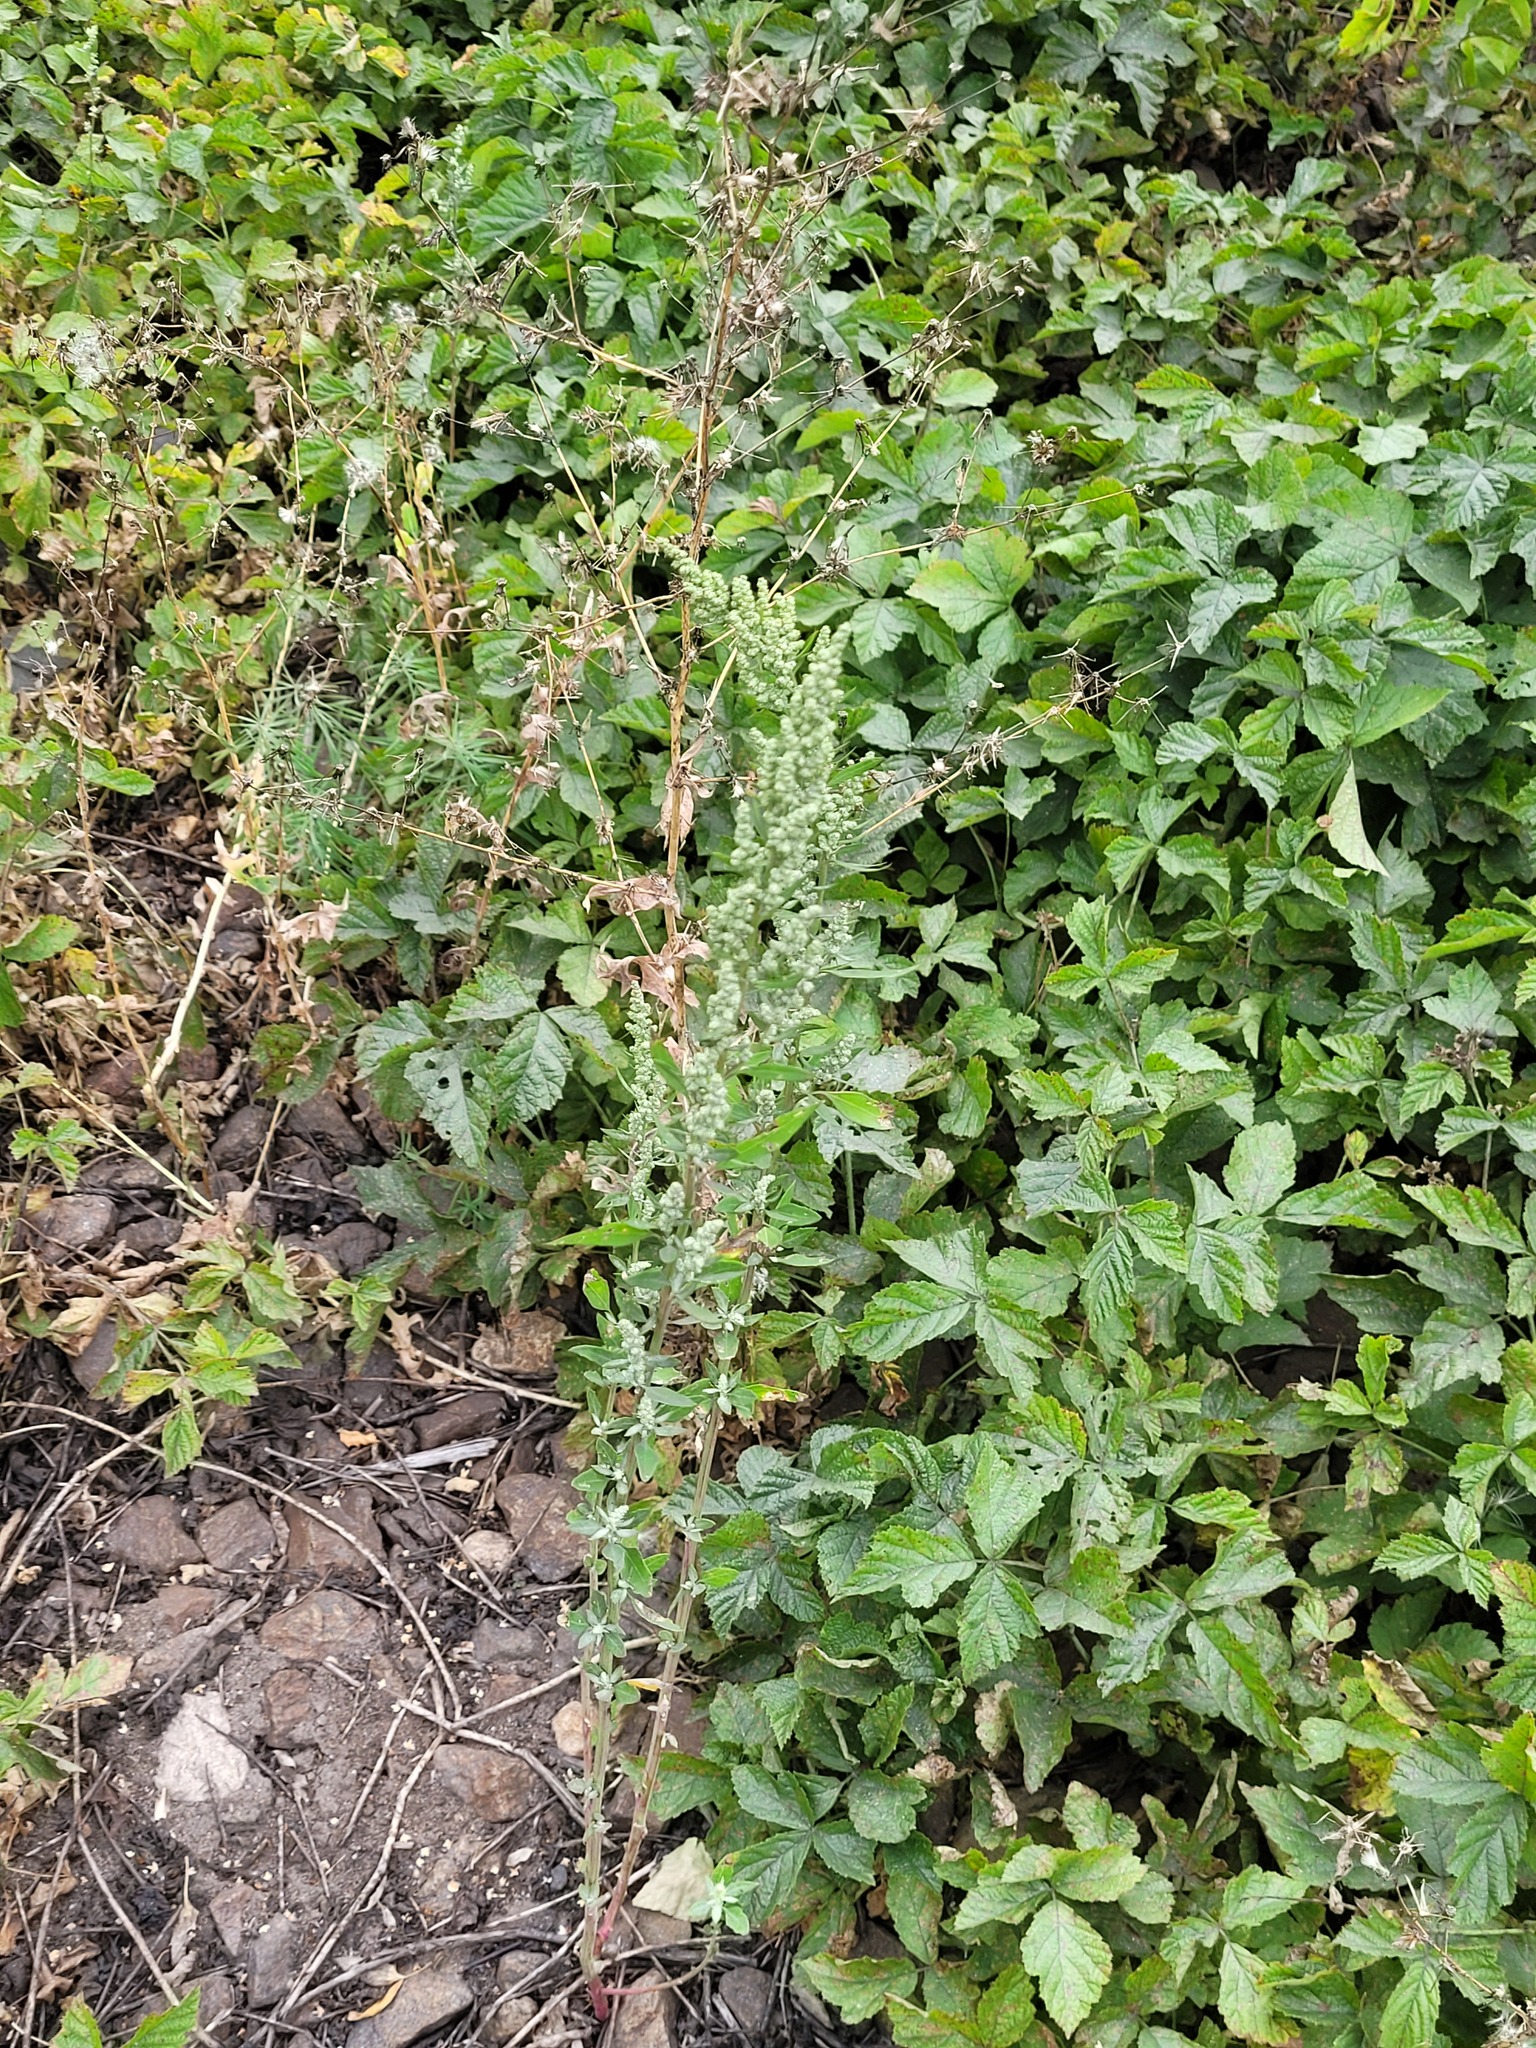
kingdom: Plantae
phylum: Tracheophyta
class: Magnoliopsida
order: Caryophyllales
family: Amaranthaceae
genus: Chenopodium
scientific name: Chenopodium album
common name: Fat-hen
